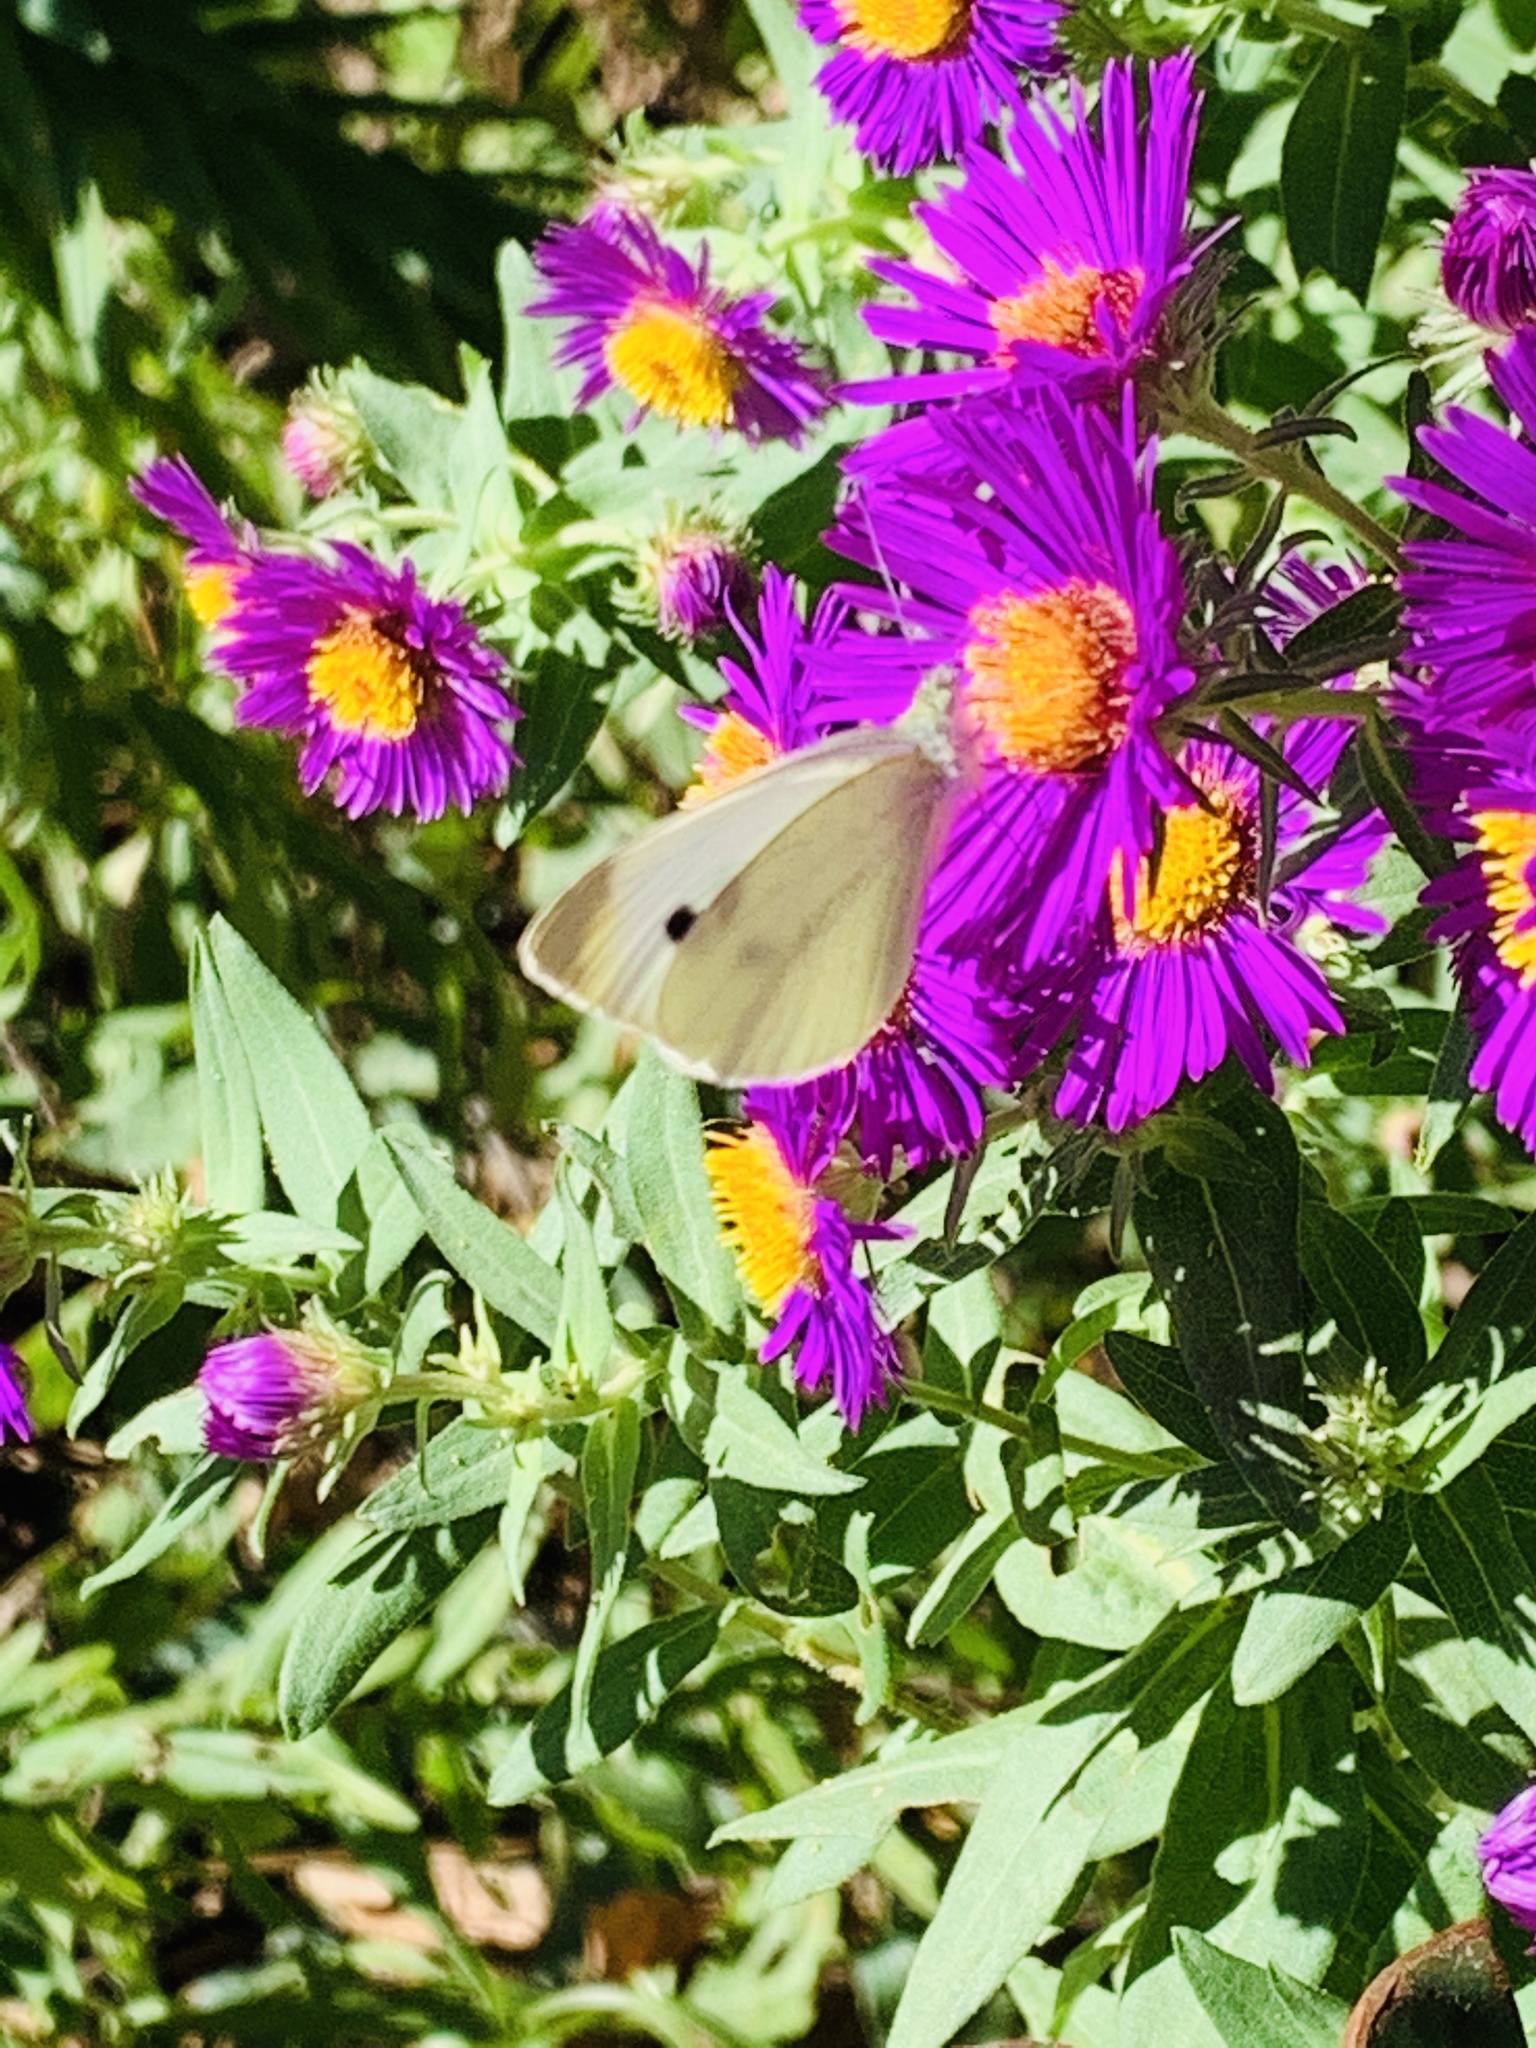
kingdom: Animalia
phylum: Arthropoda
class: Insecta
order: Lepidoptera
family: Pieridae
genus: Pieris
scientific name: Pieris rapae
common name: Small white
